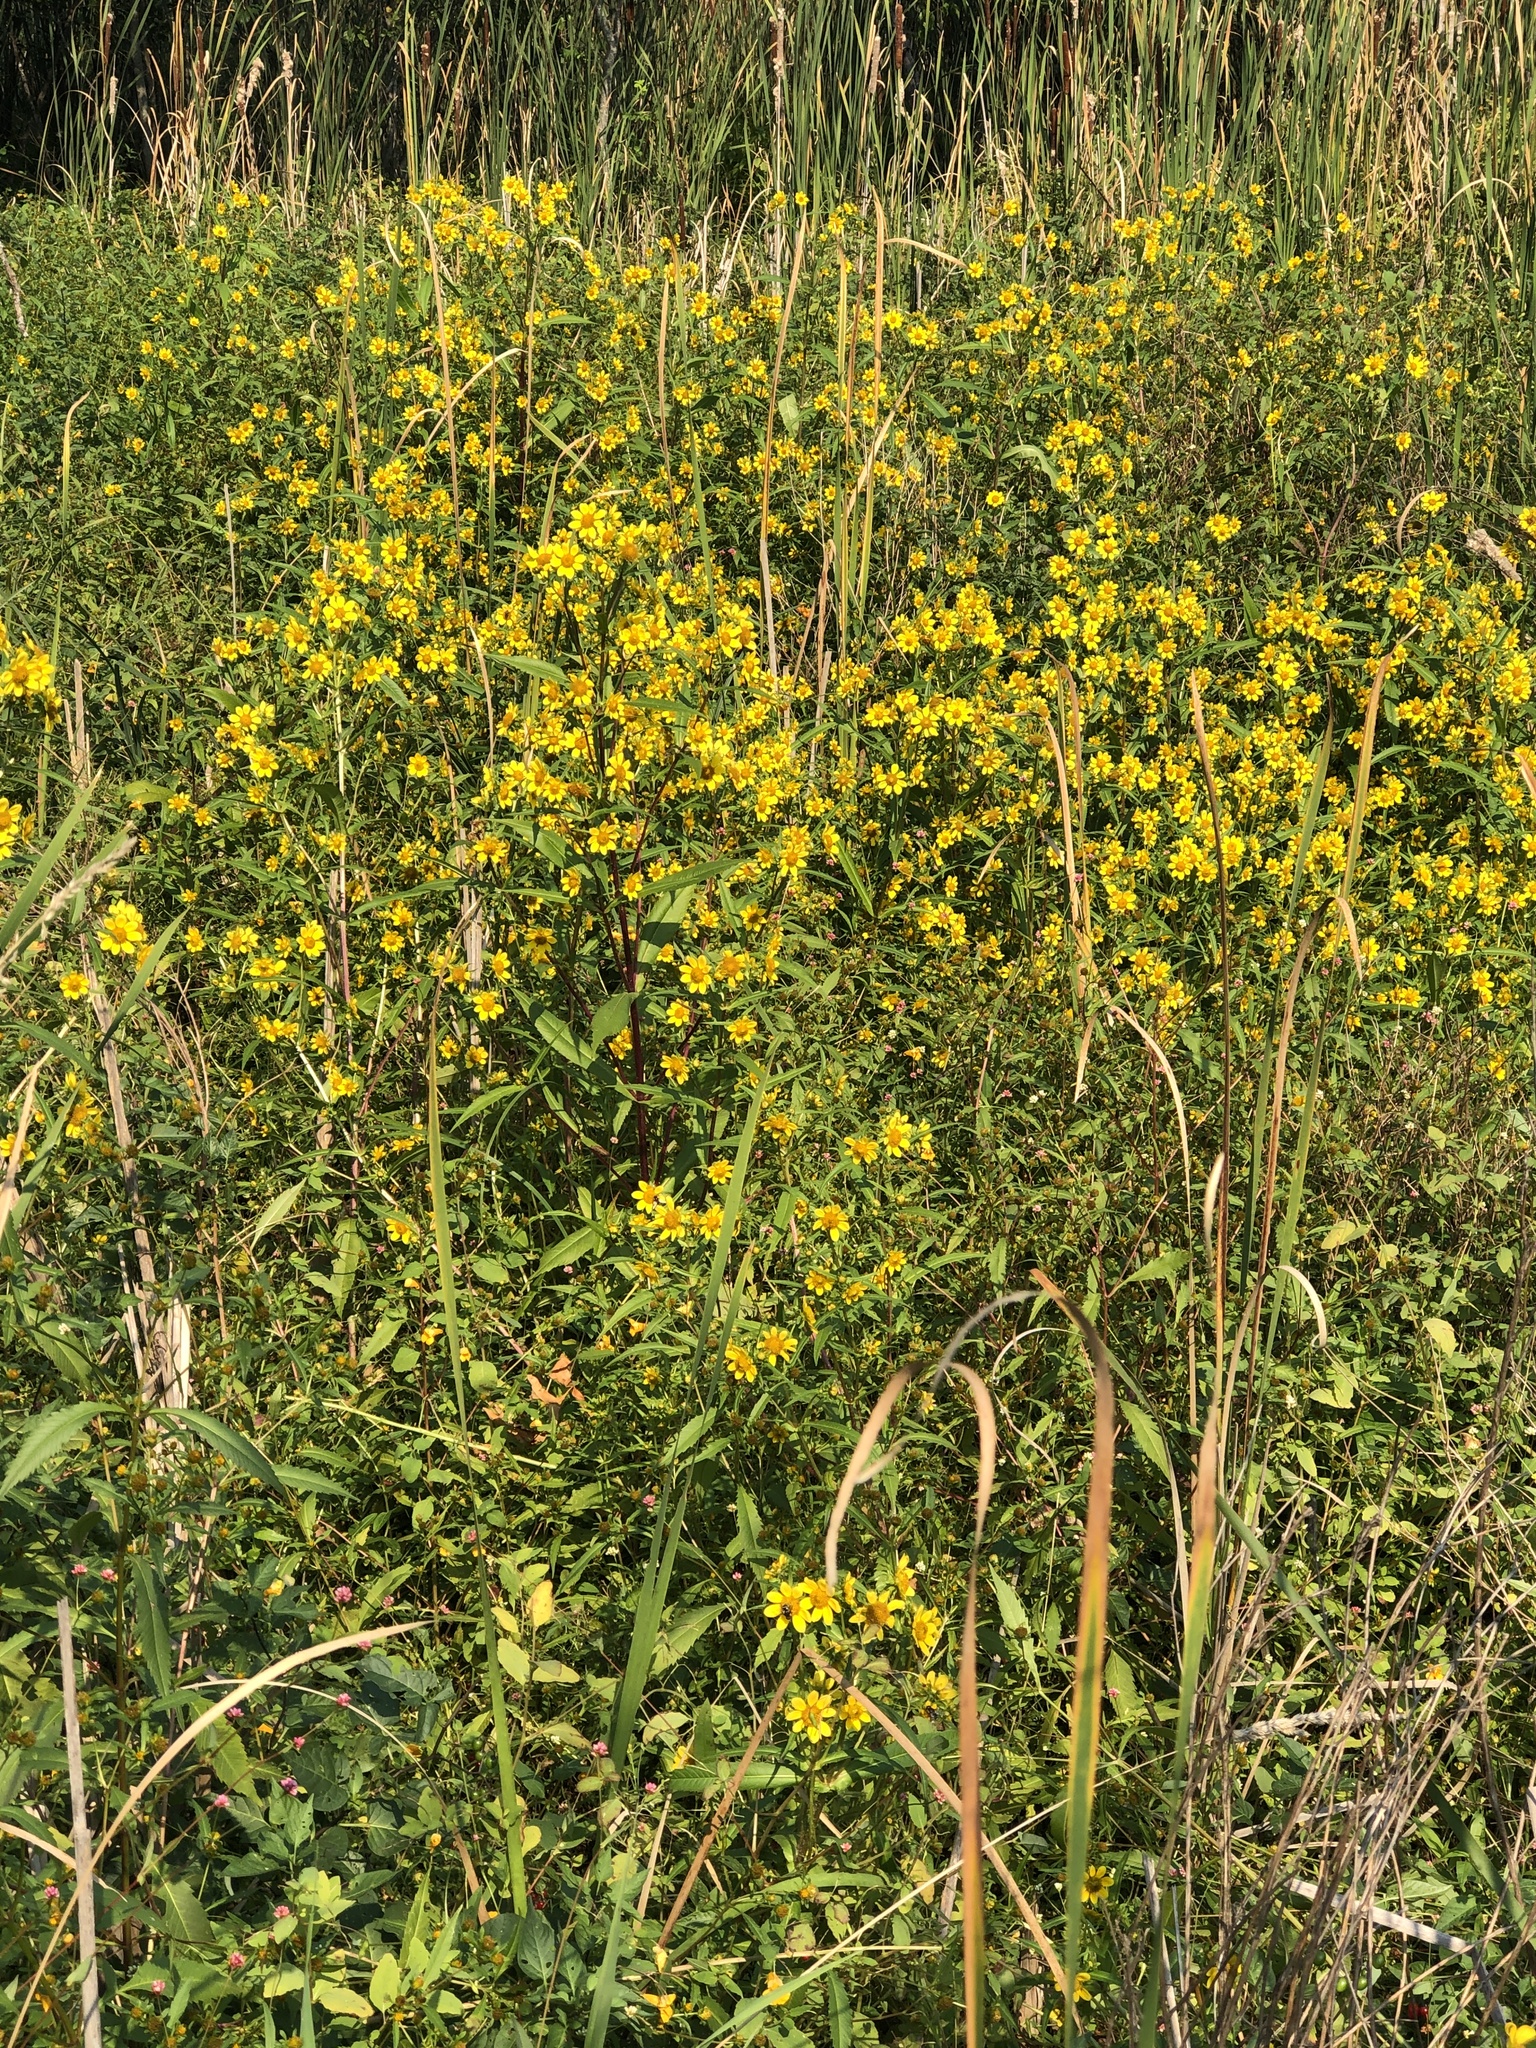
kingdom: Plantae
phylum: Tracheophyta
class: Magnoliopsida
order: Asterales
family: Asteraceae
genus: Bidens
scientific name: Bidens cernua
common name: Nodding bur-marigold
